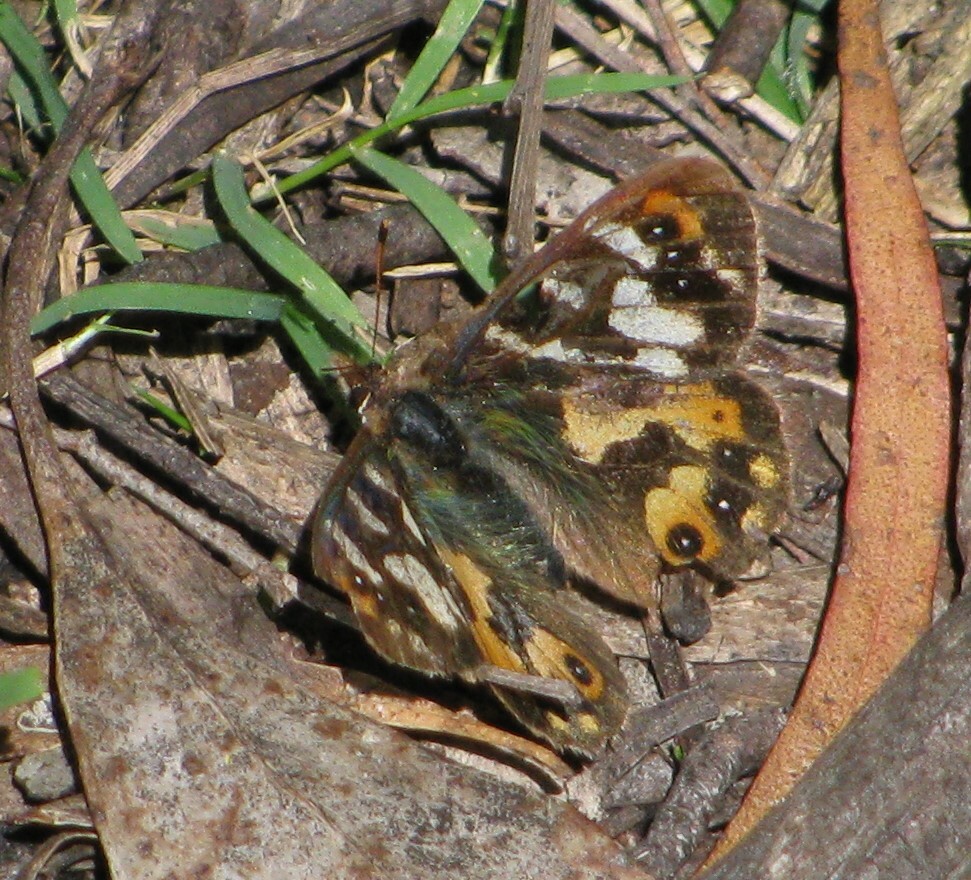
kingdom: Animalia
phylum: Arthropoda
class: Insecta
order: Lepidoptera
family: Nymphalidae
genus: Argynnina
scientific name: Argynnina hobartia
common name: Hobart brown
